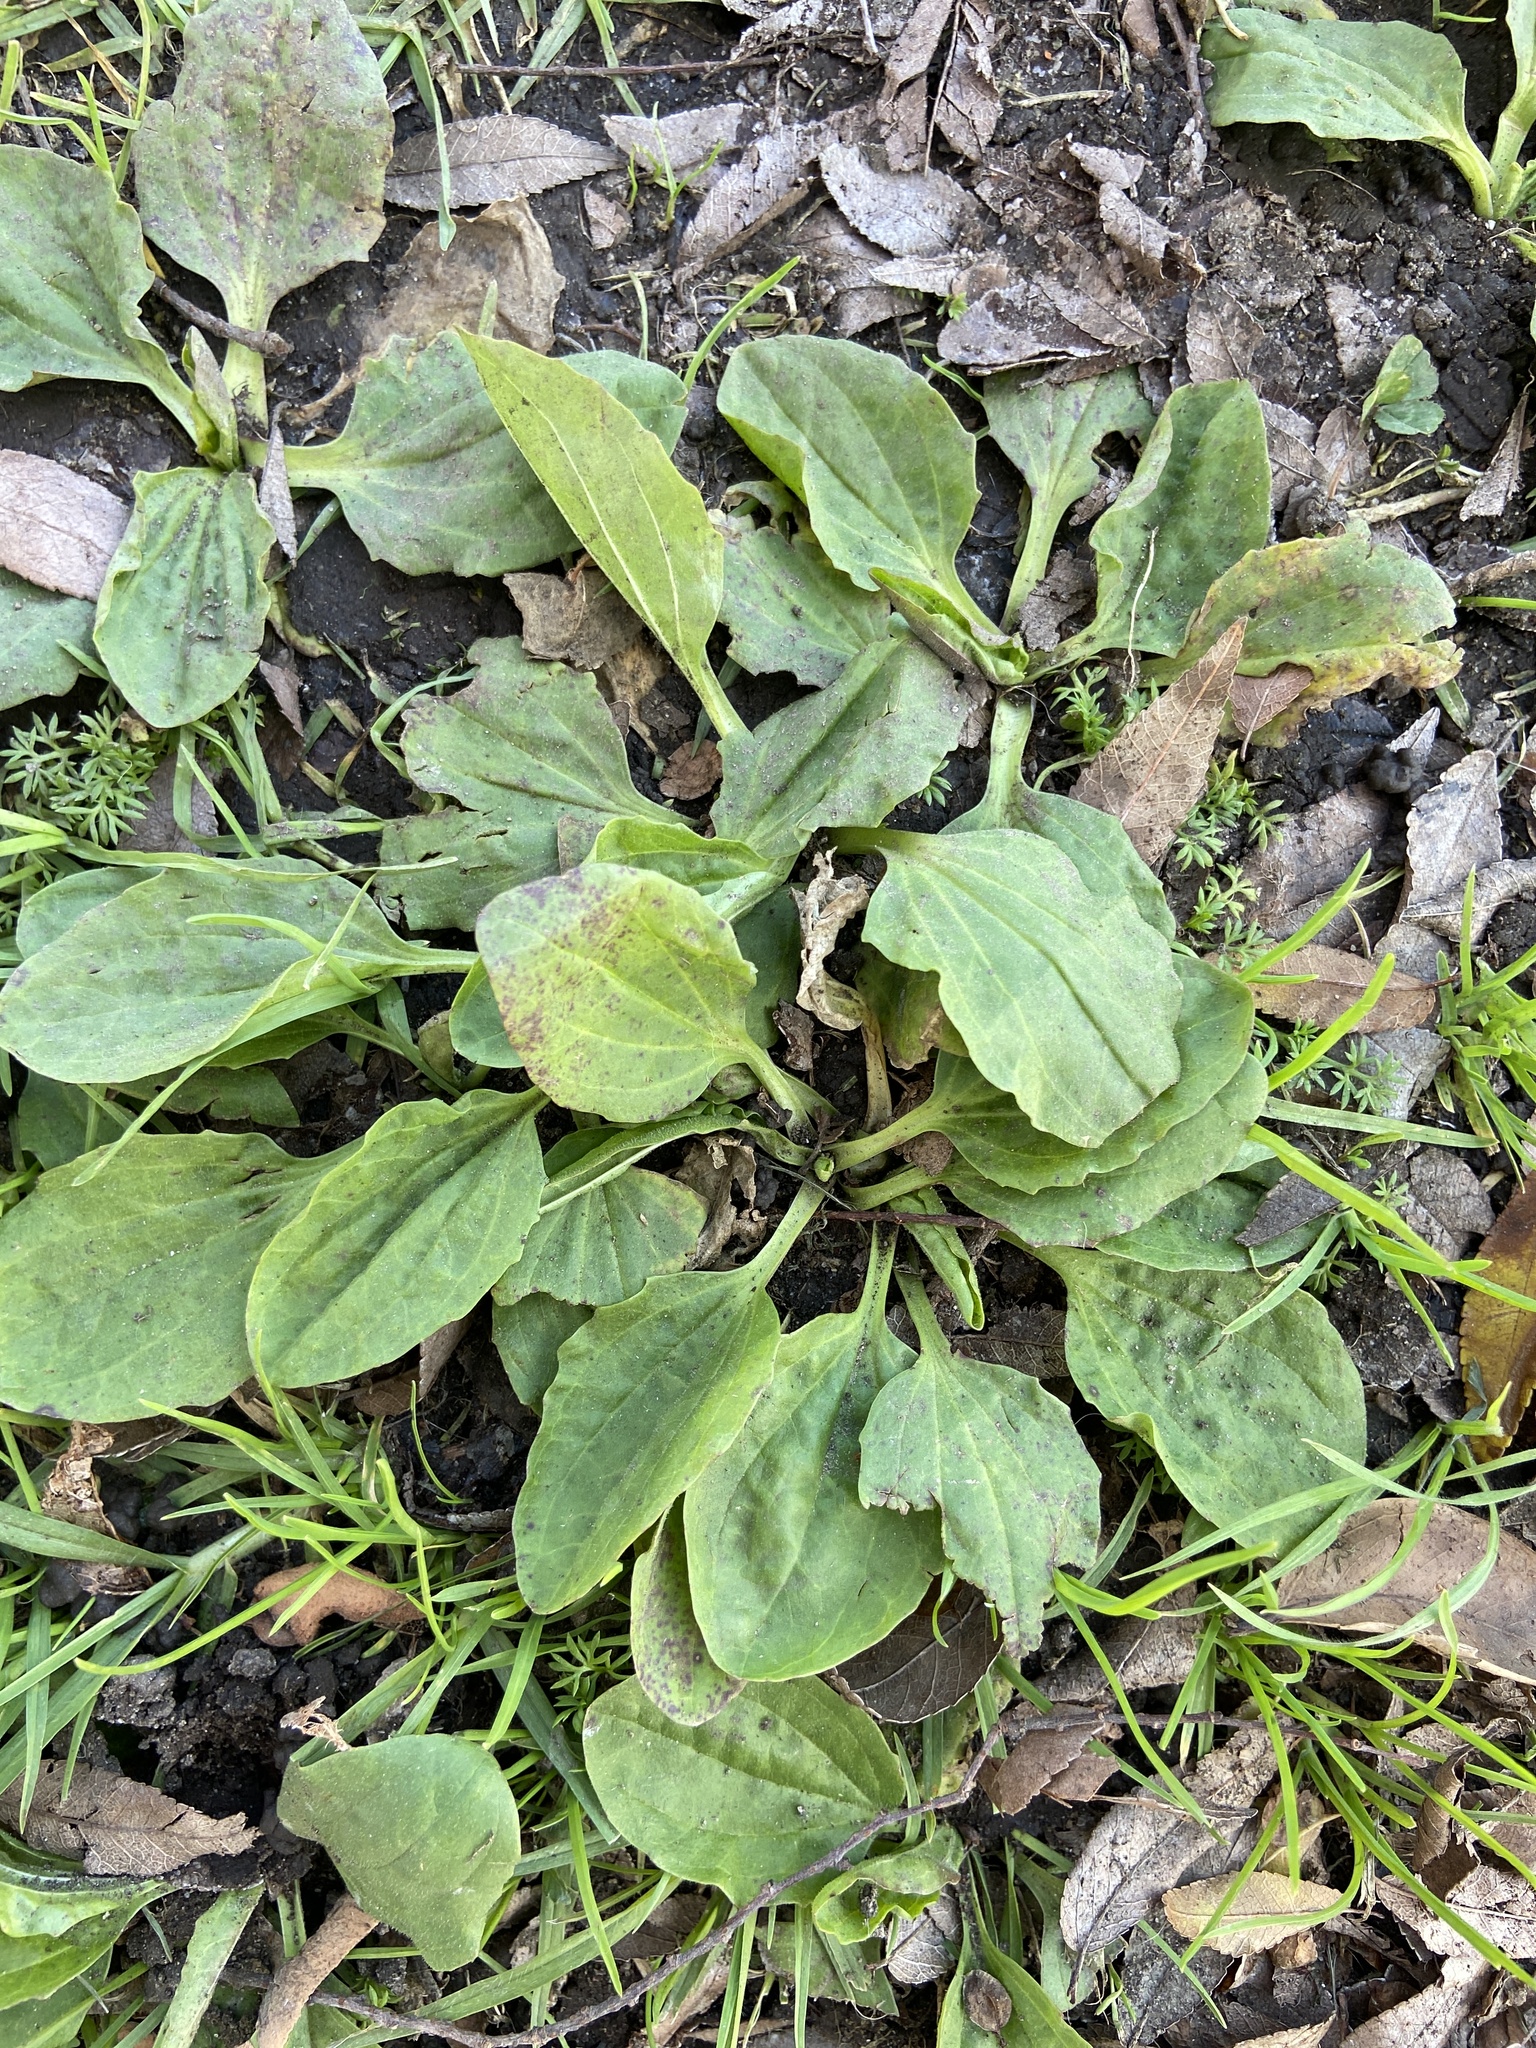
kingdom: Plantae
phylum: Tracheophyta
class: Magnoliopsida
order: Lamiales
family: Plantaginaceae
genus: Plantago
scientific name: Plantago major
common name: Common plantain
